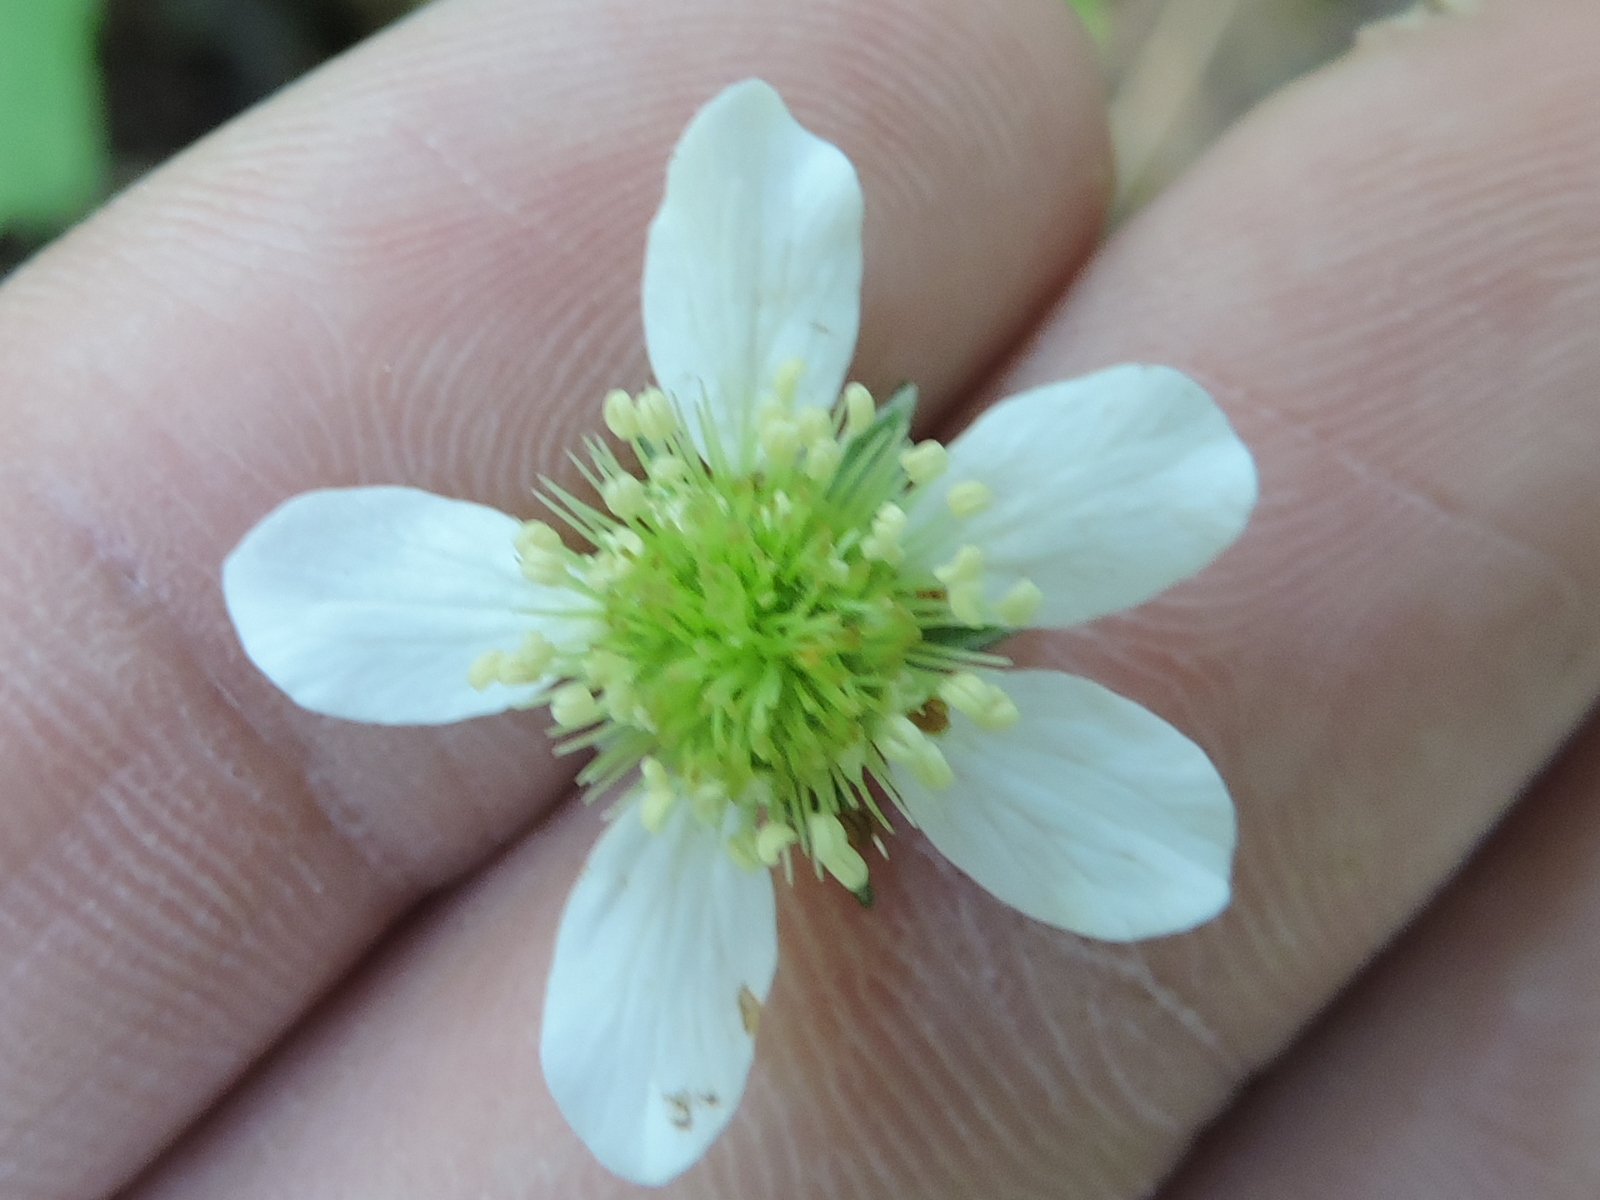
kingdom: Plantae
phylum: Tracheophyta
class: Magnoliopsida
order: Rosales
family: Rosaceae
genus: Geum
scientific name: Geum canadense
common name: White avens
